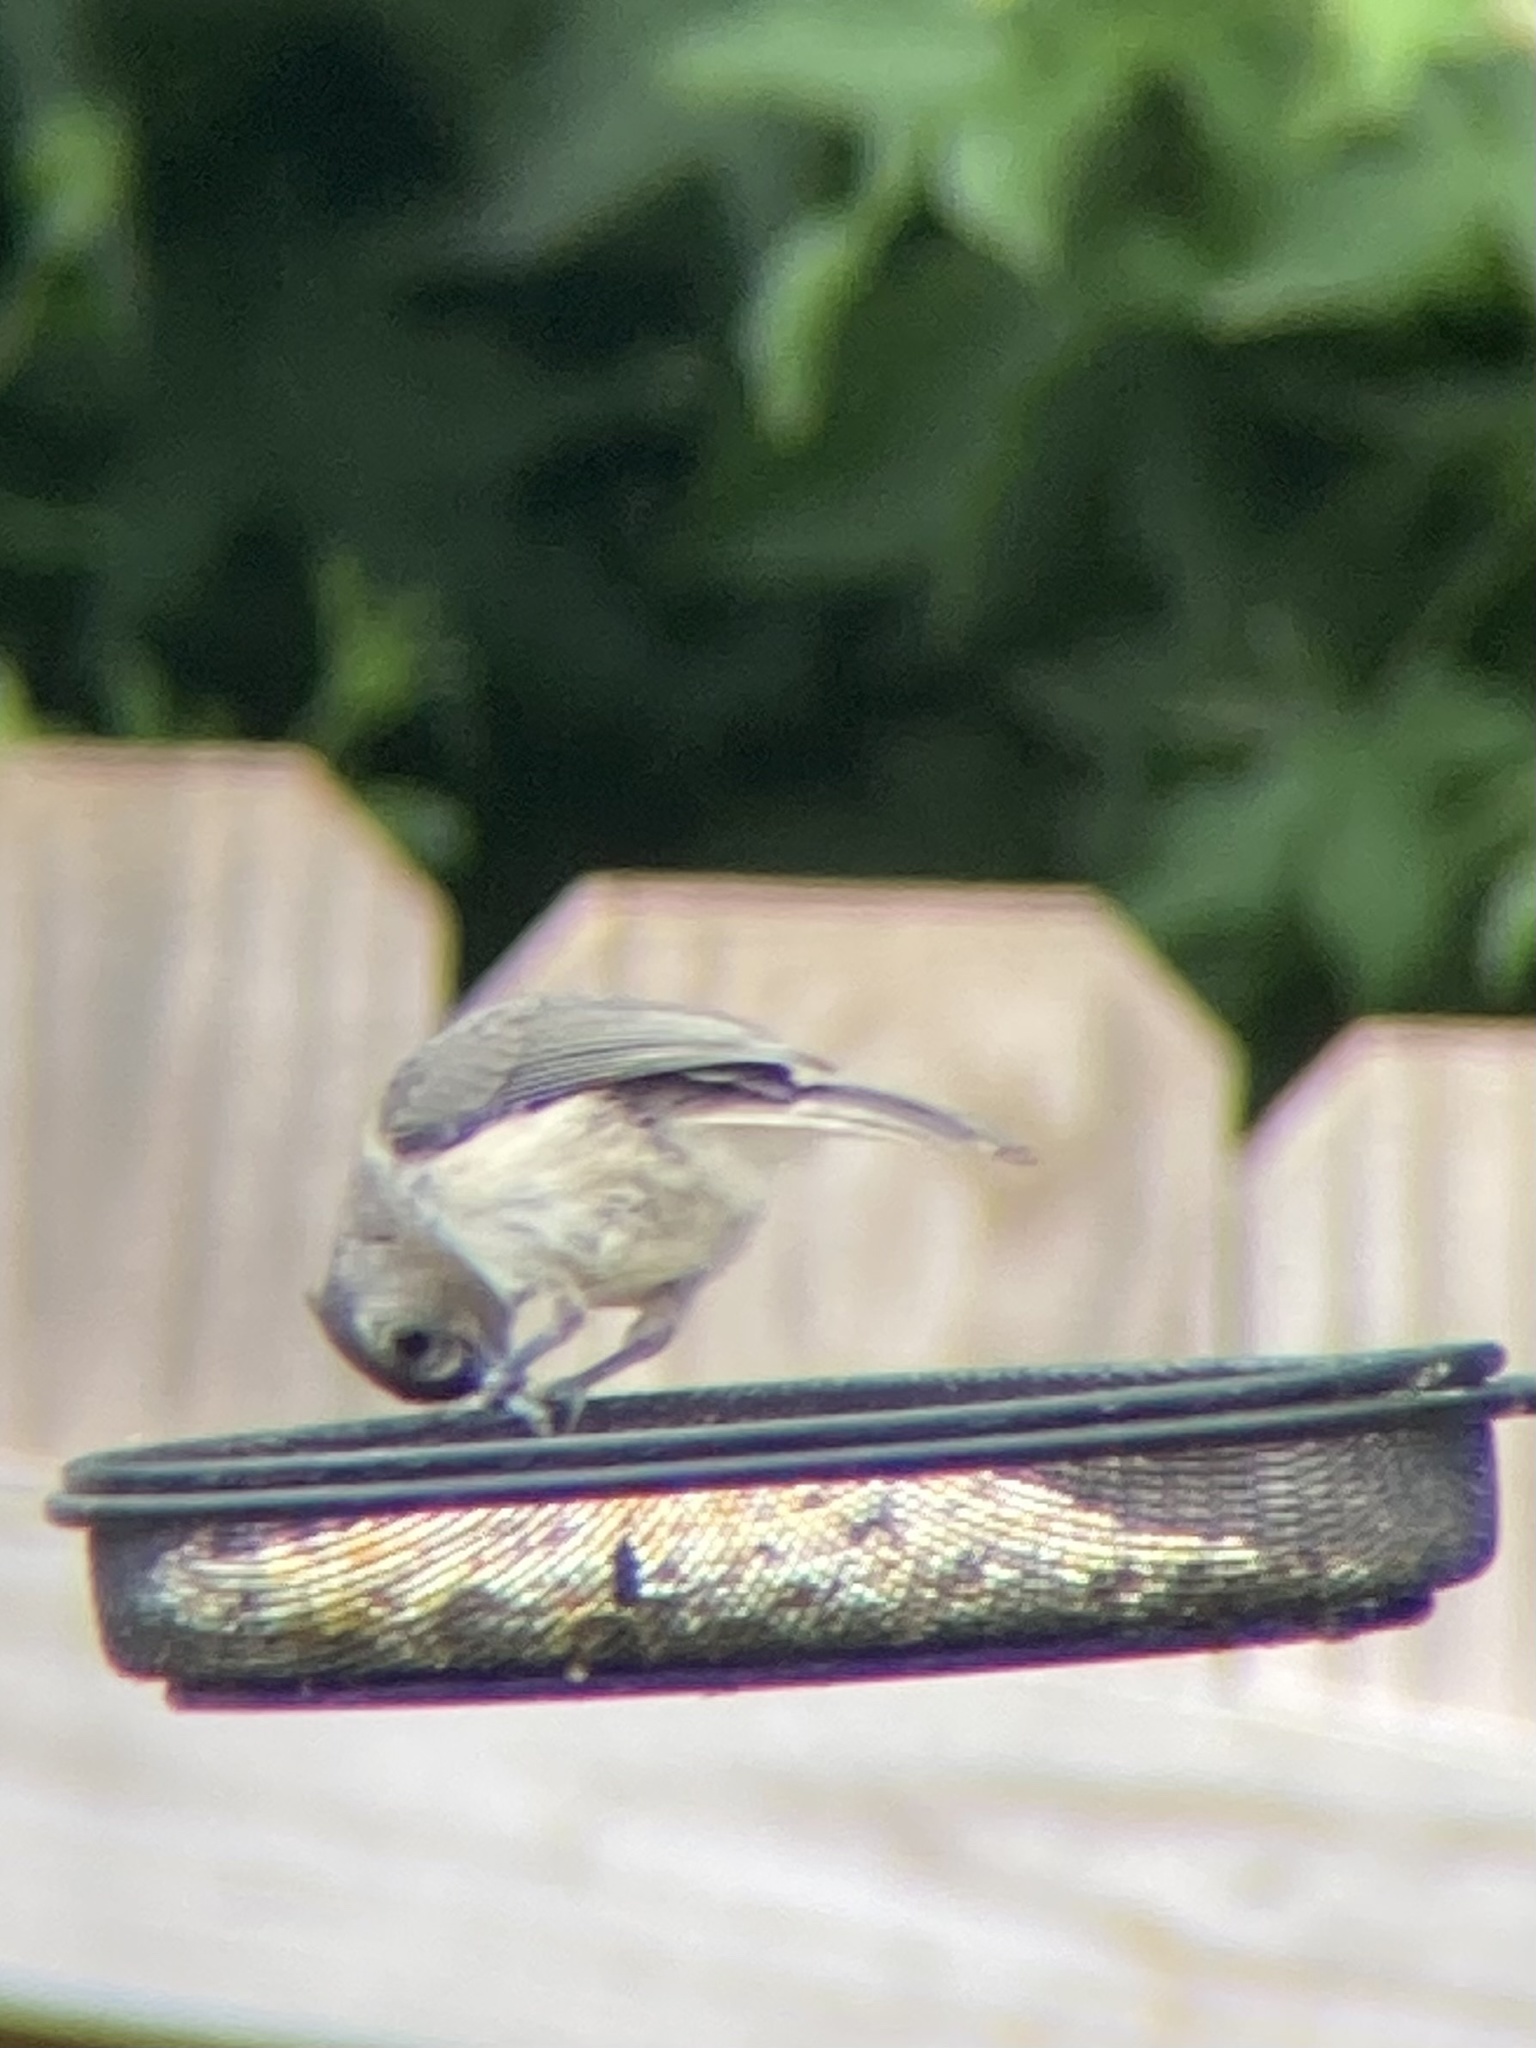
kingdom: Animalia
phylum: Chordata
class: Aves
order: Passeriformes
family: Paridae
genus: Baeolophus
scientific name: Baeolophus bicolor
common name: Tufted titmouse
